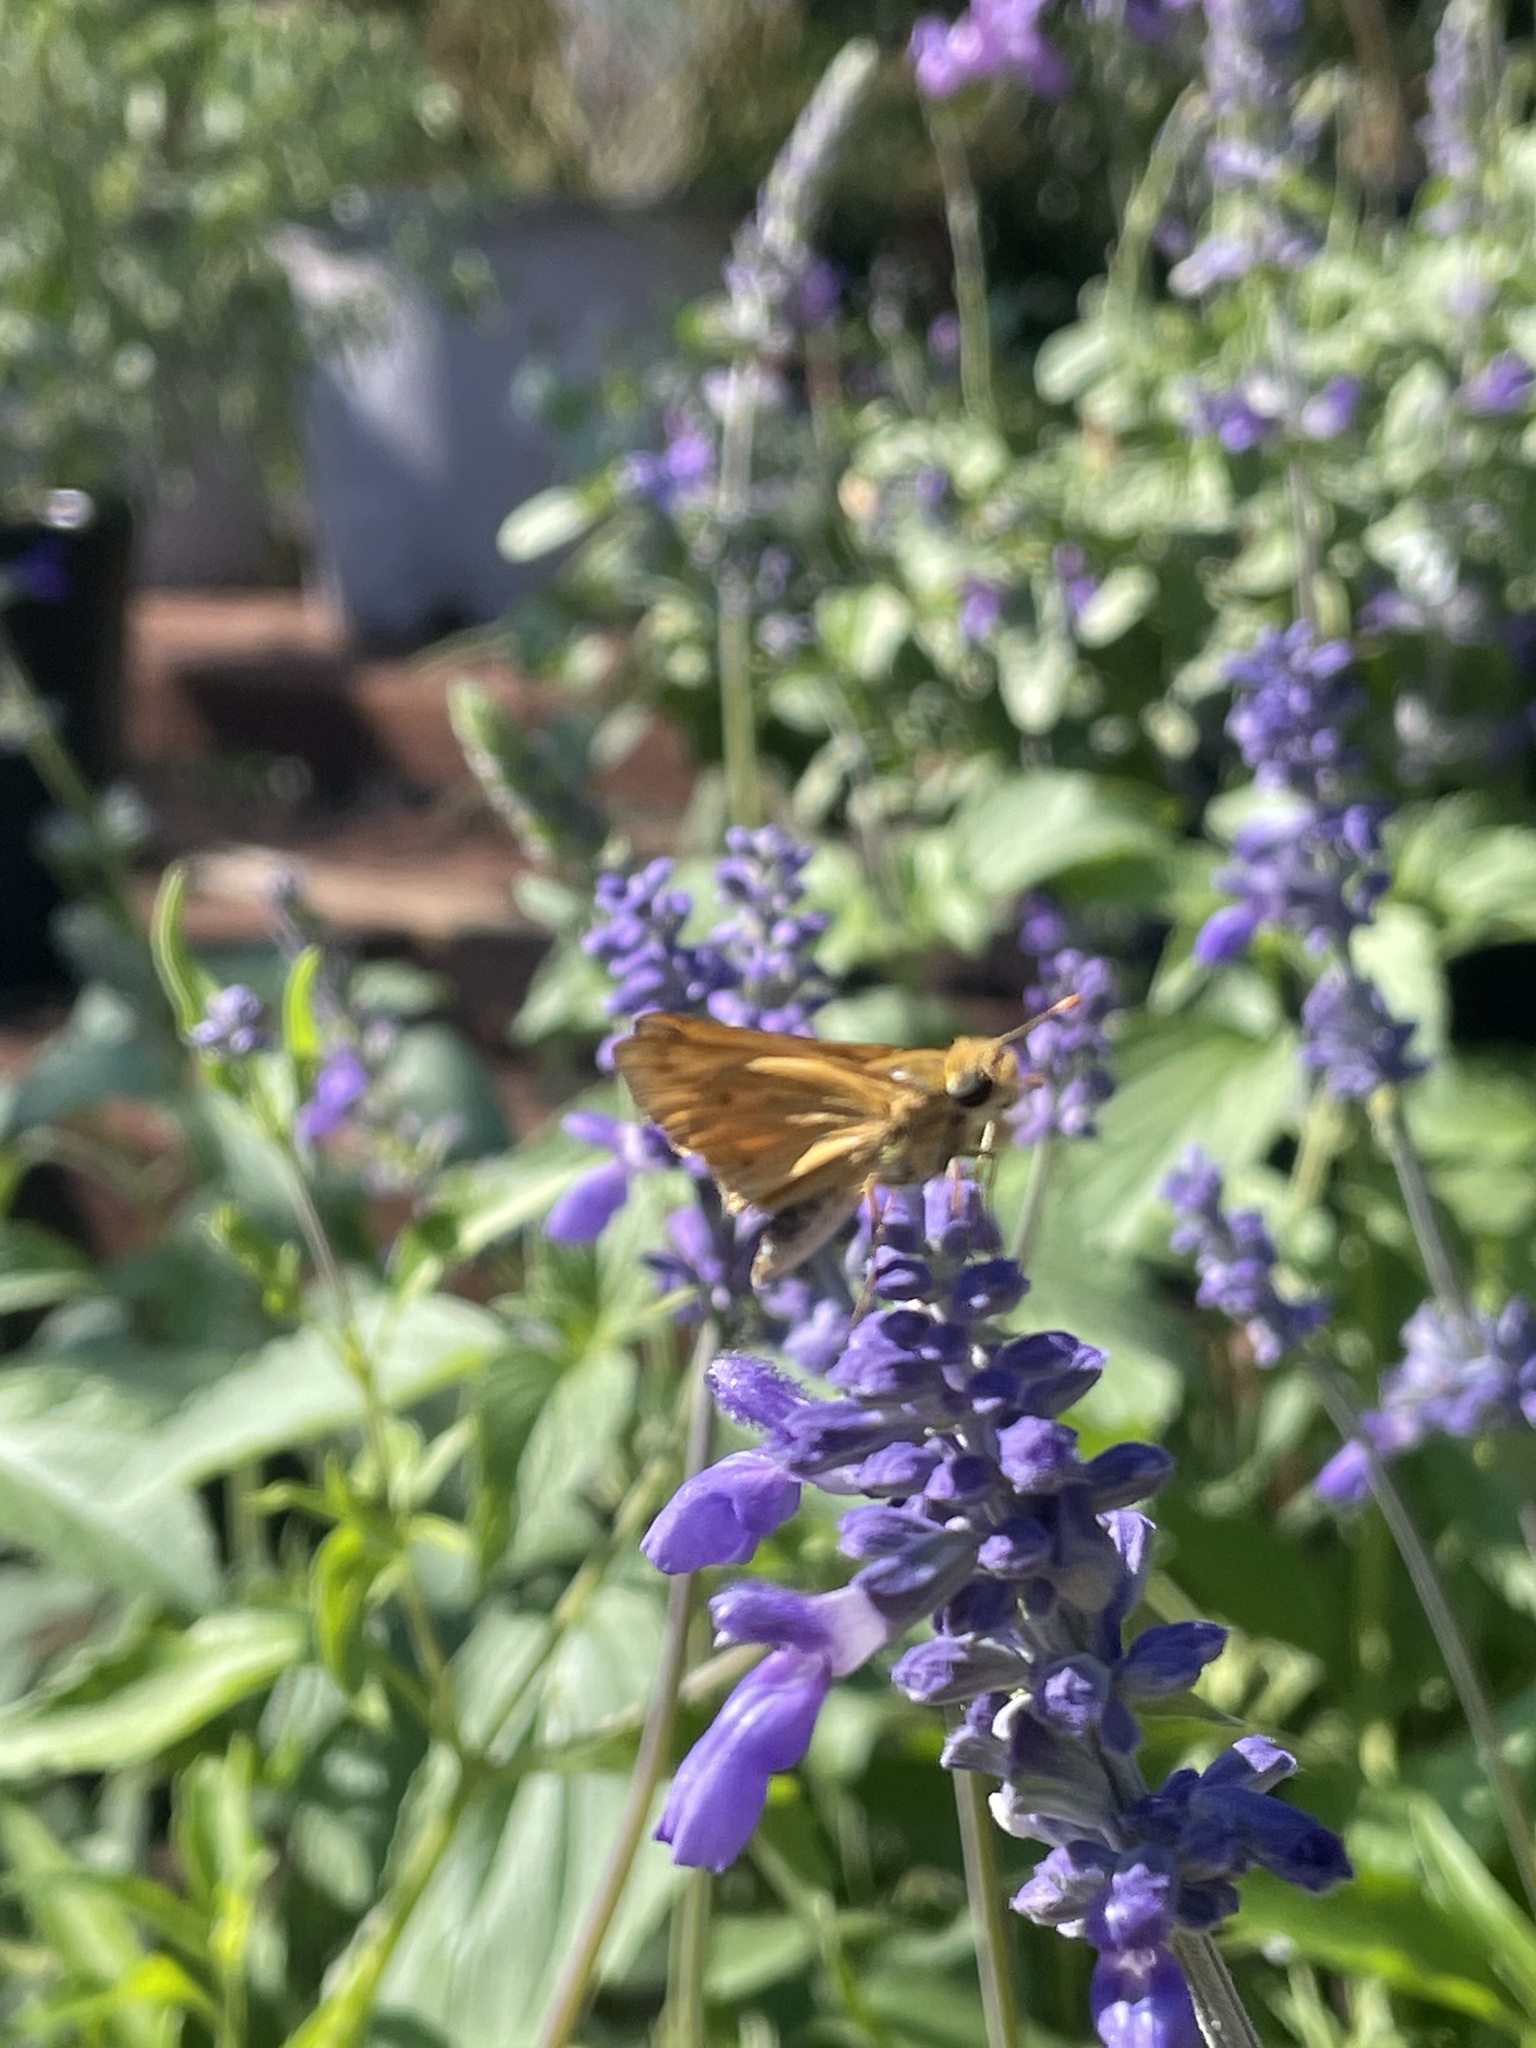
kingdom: Animalia
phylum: Arthropoda
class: Insecta
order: Lepidoptera
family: Hesperiidae
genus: Hylephila
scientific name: Hylephila phyleus
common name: Fiery skipper
